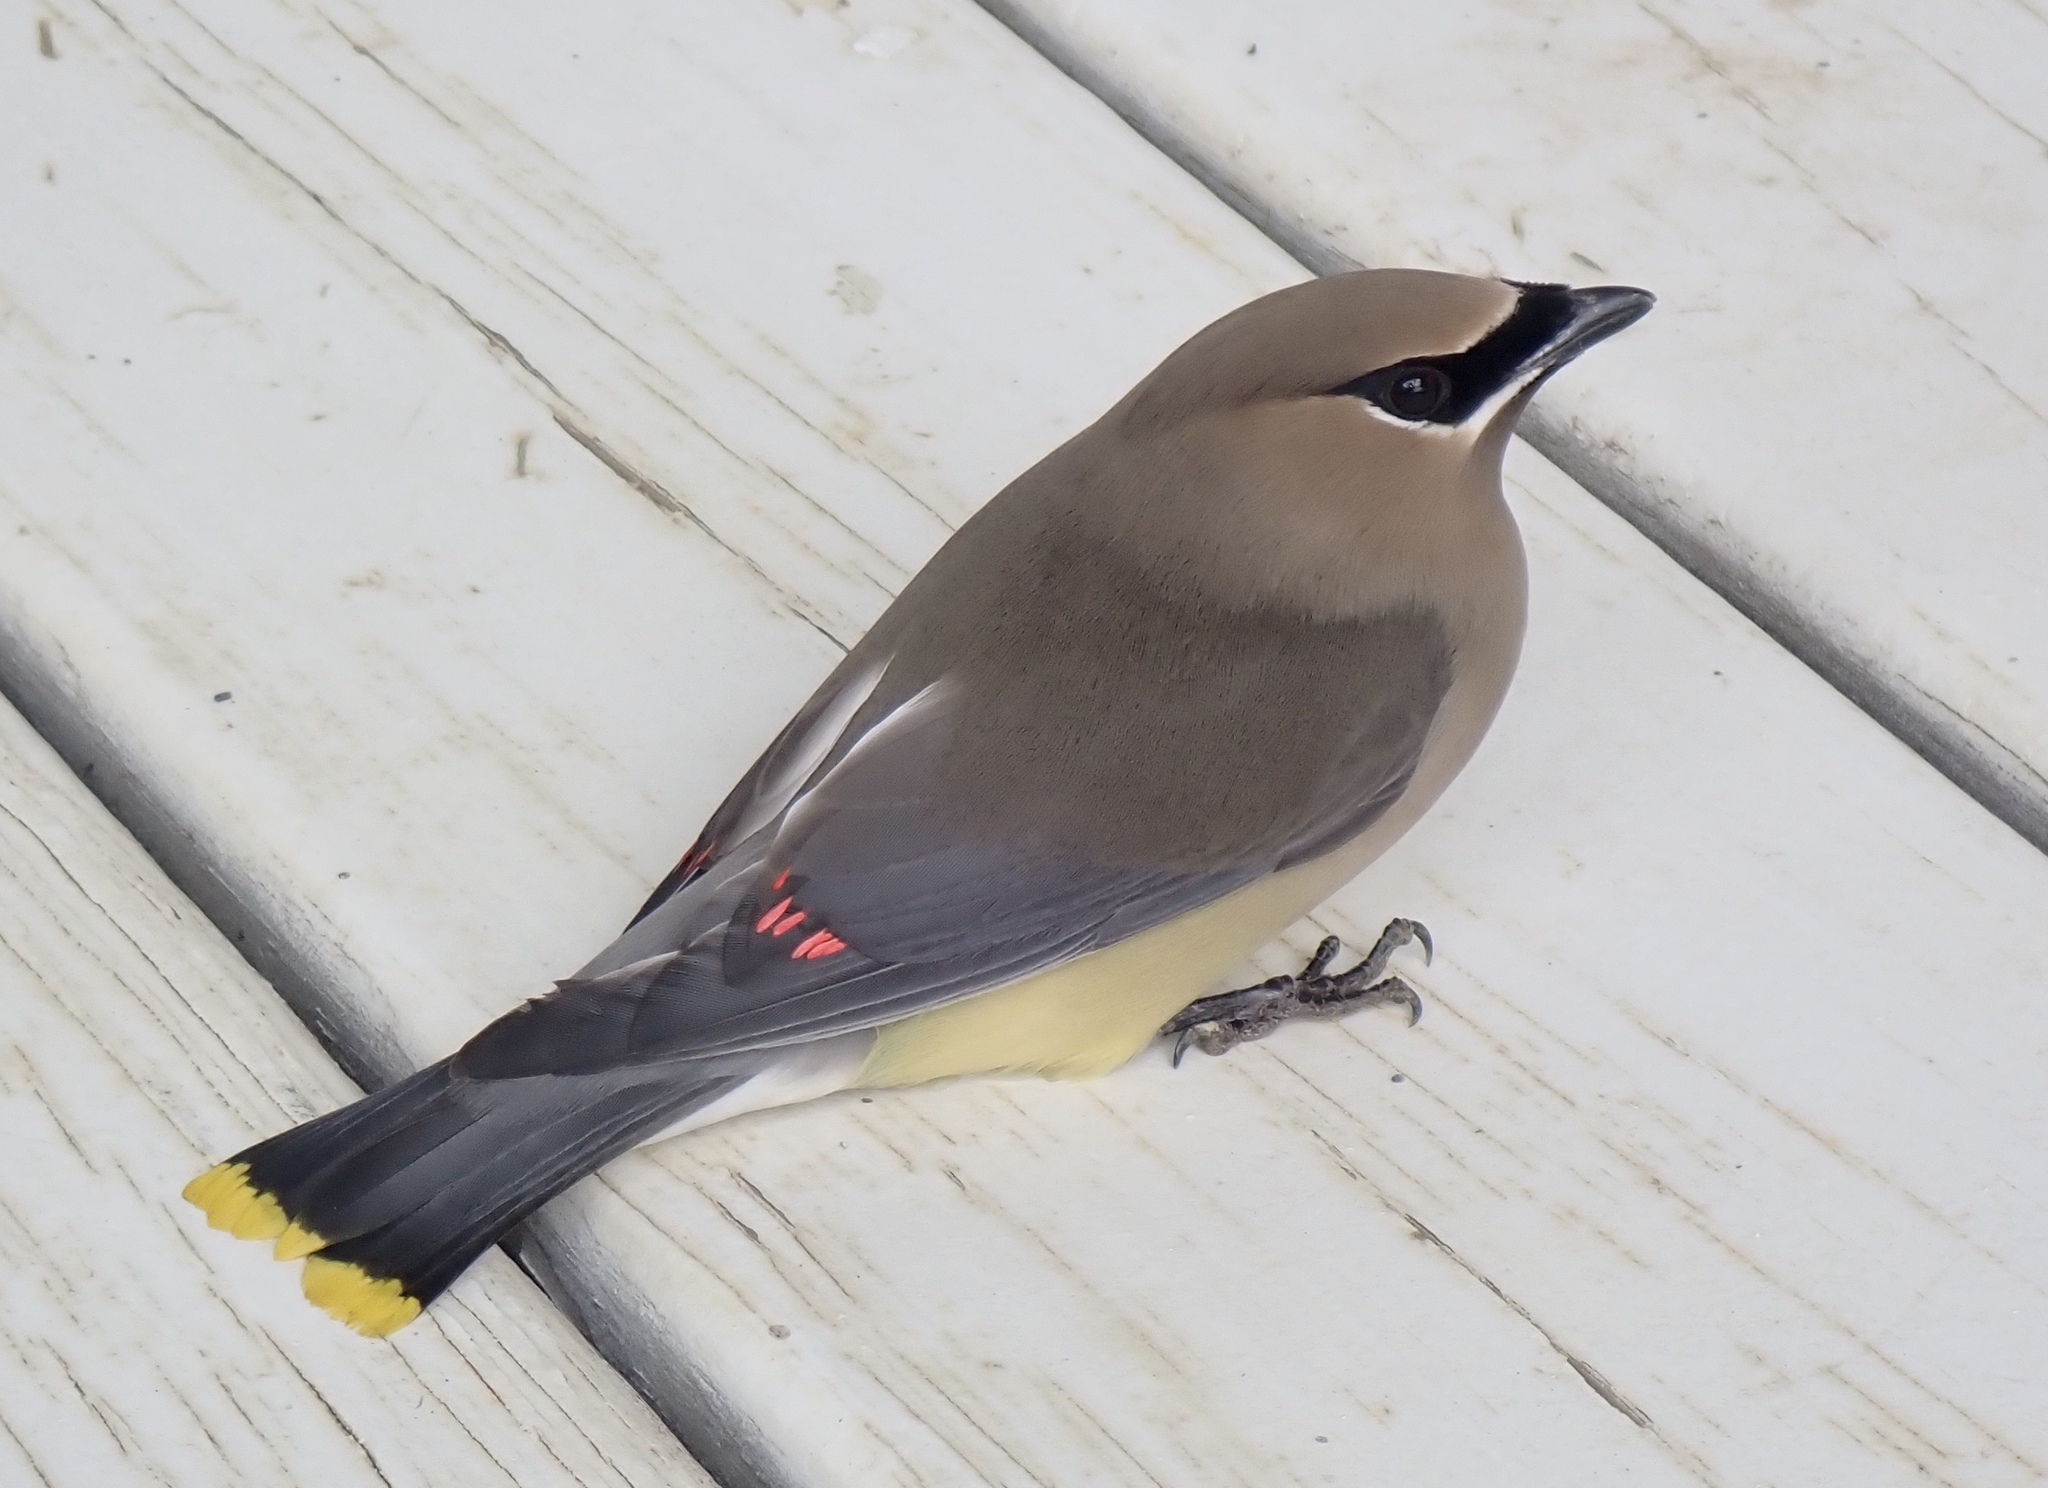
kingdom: Animalia
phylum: Chordata
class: Aves
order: Passeriformes
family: Bombycillidae
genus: Bombycilla
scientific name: Bombycilla cedrorum
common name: Cedar waxwing
